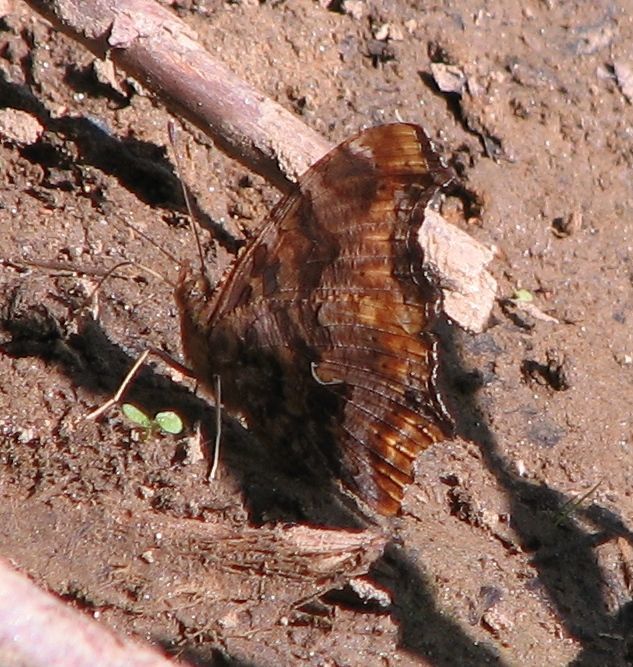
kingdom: Animalia
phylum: Arthropoda
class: Insecta
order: Lepidoptera
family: Nymphalidae
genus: Polygonia
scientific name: Polygonia comma
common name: Eastern comma
